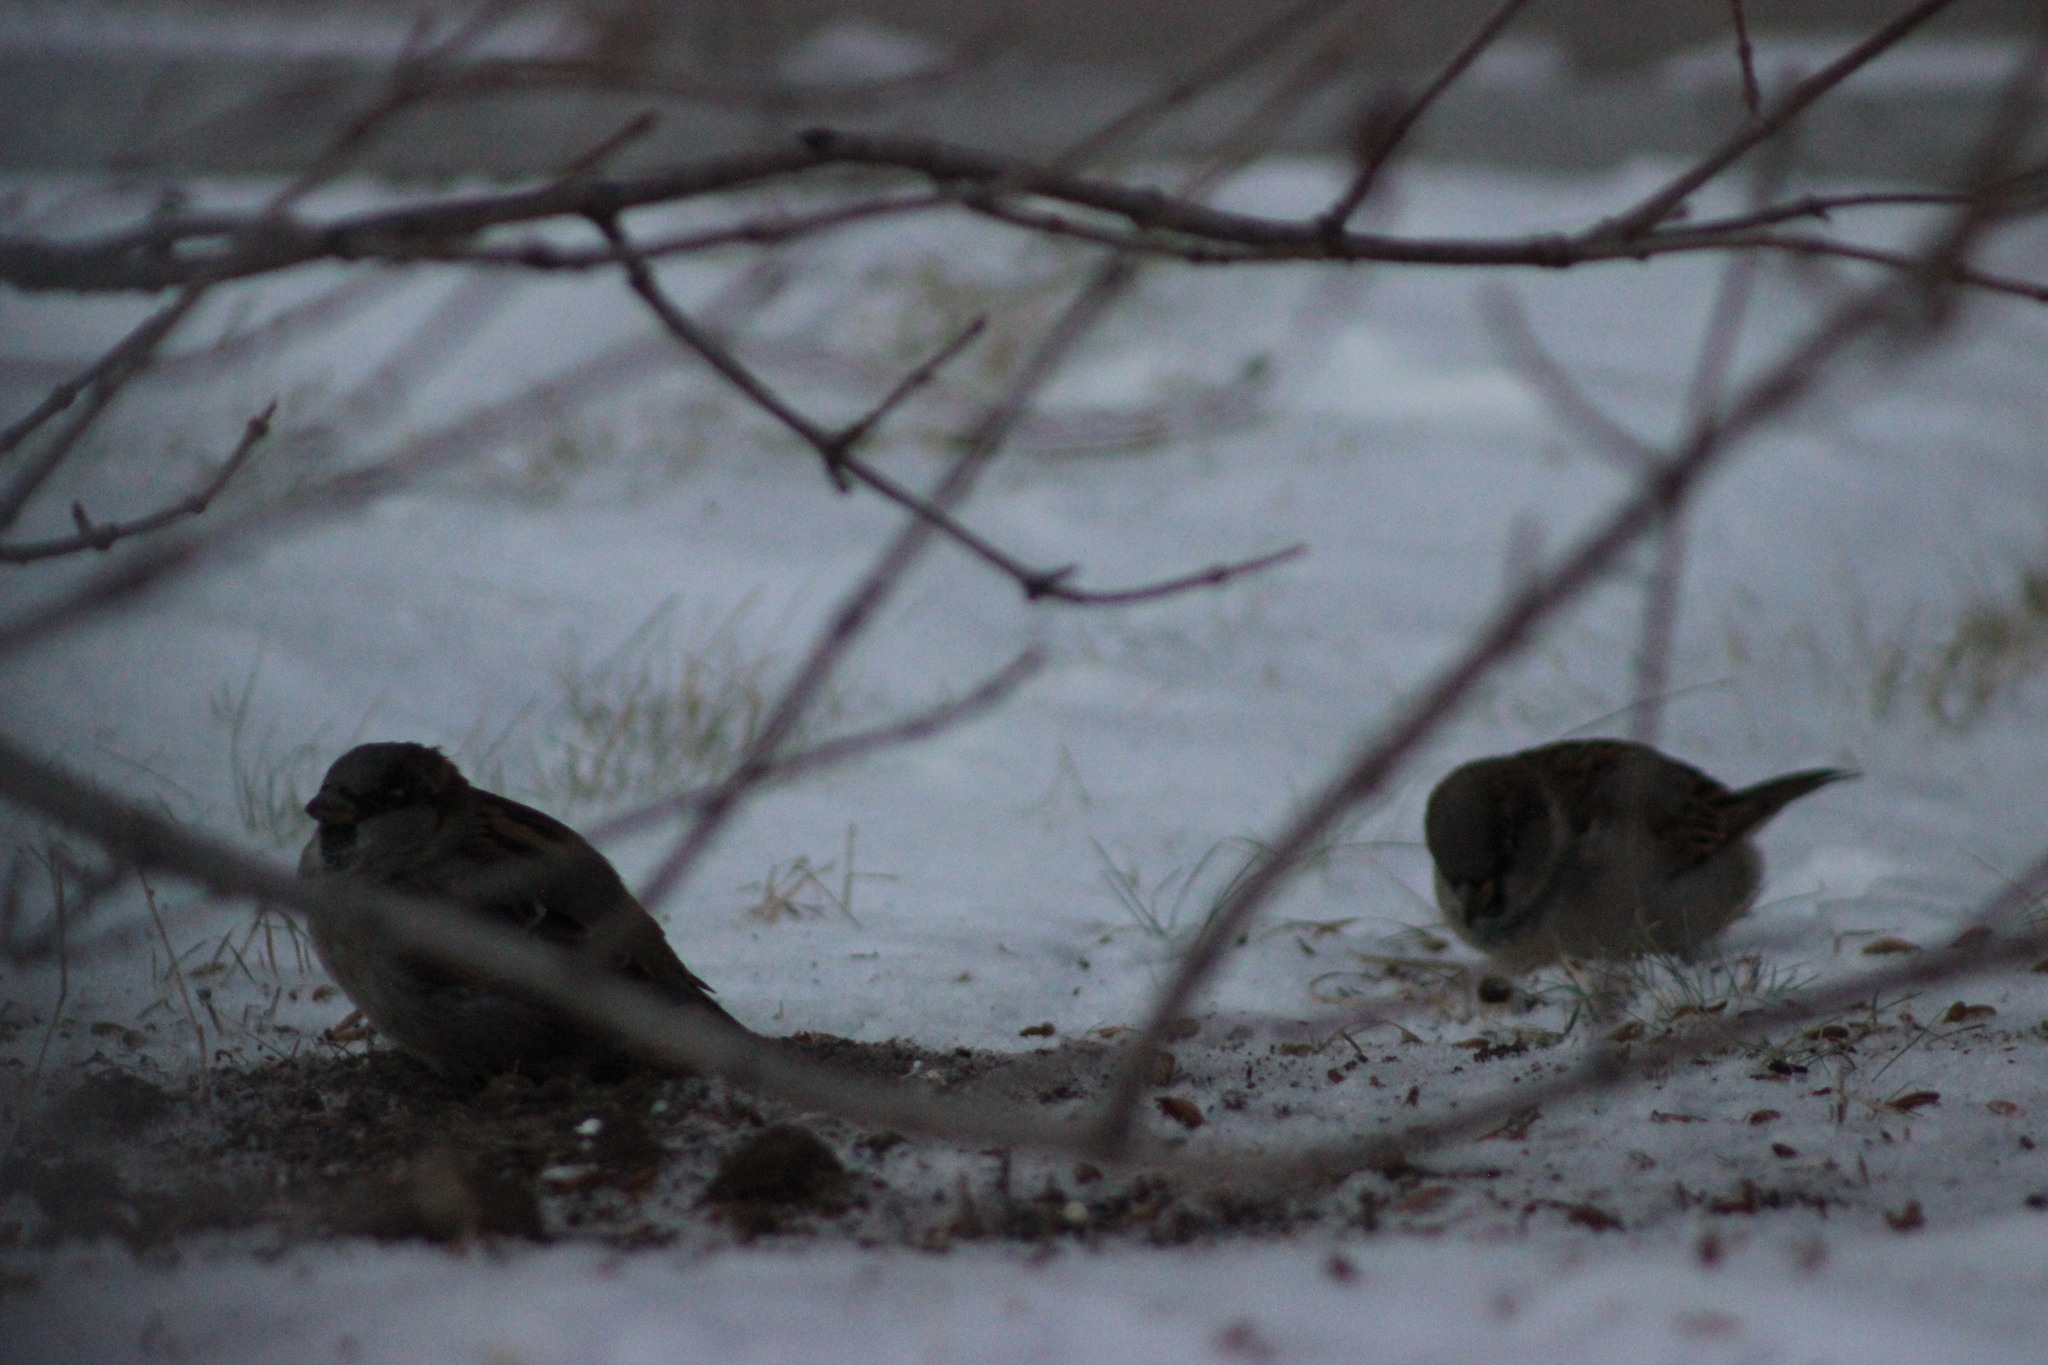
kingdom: Animalia
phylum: Chordata
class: Aves
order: Passeriformes
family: Passeridae
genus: Passer
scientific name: Passer domesticus
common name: House sparrow
